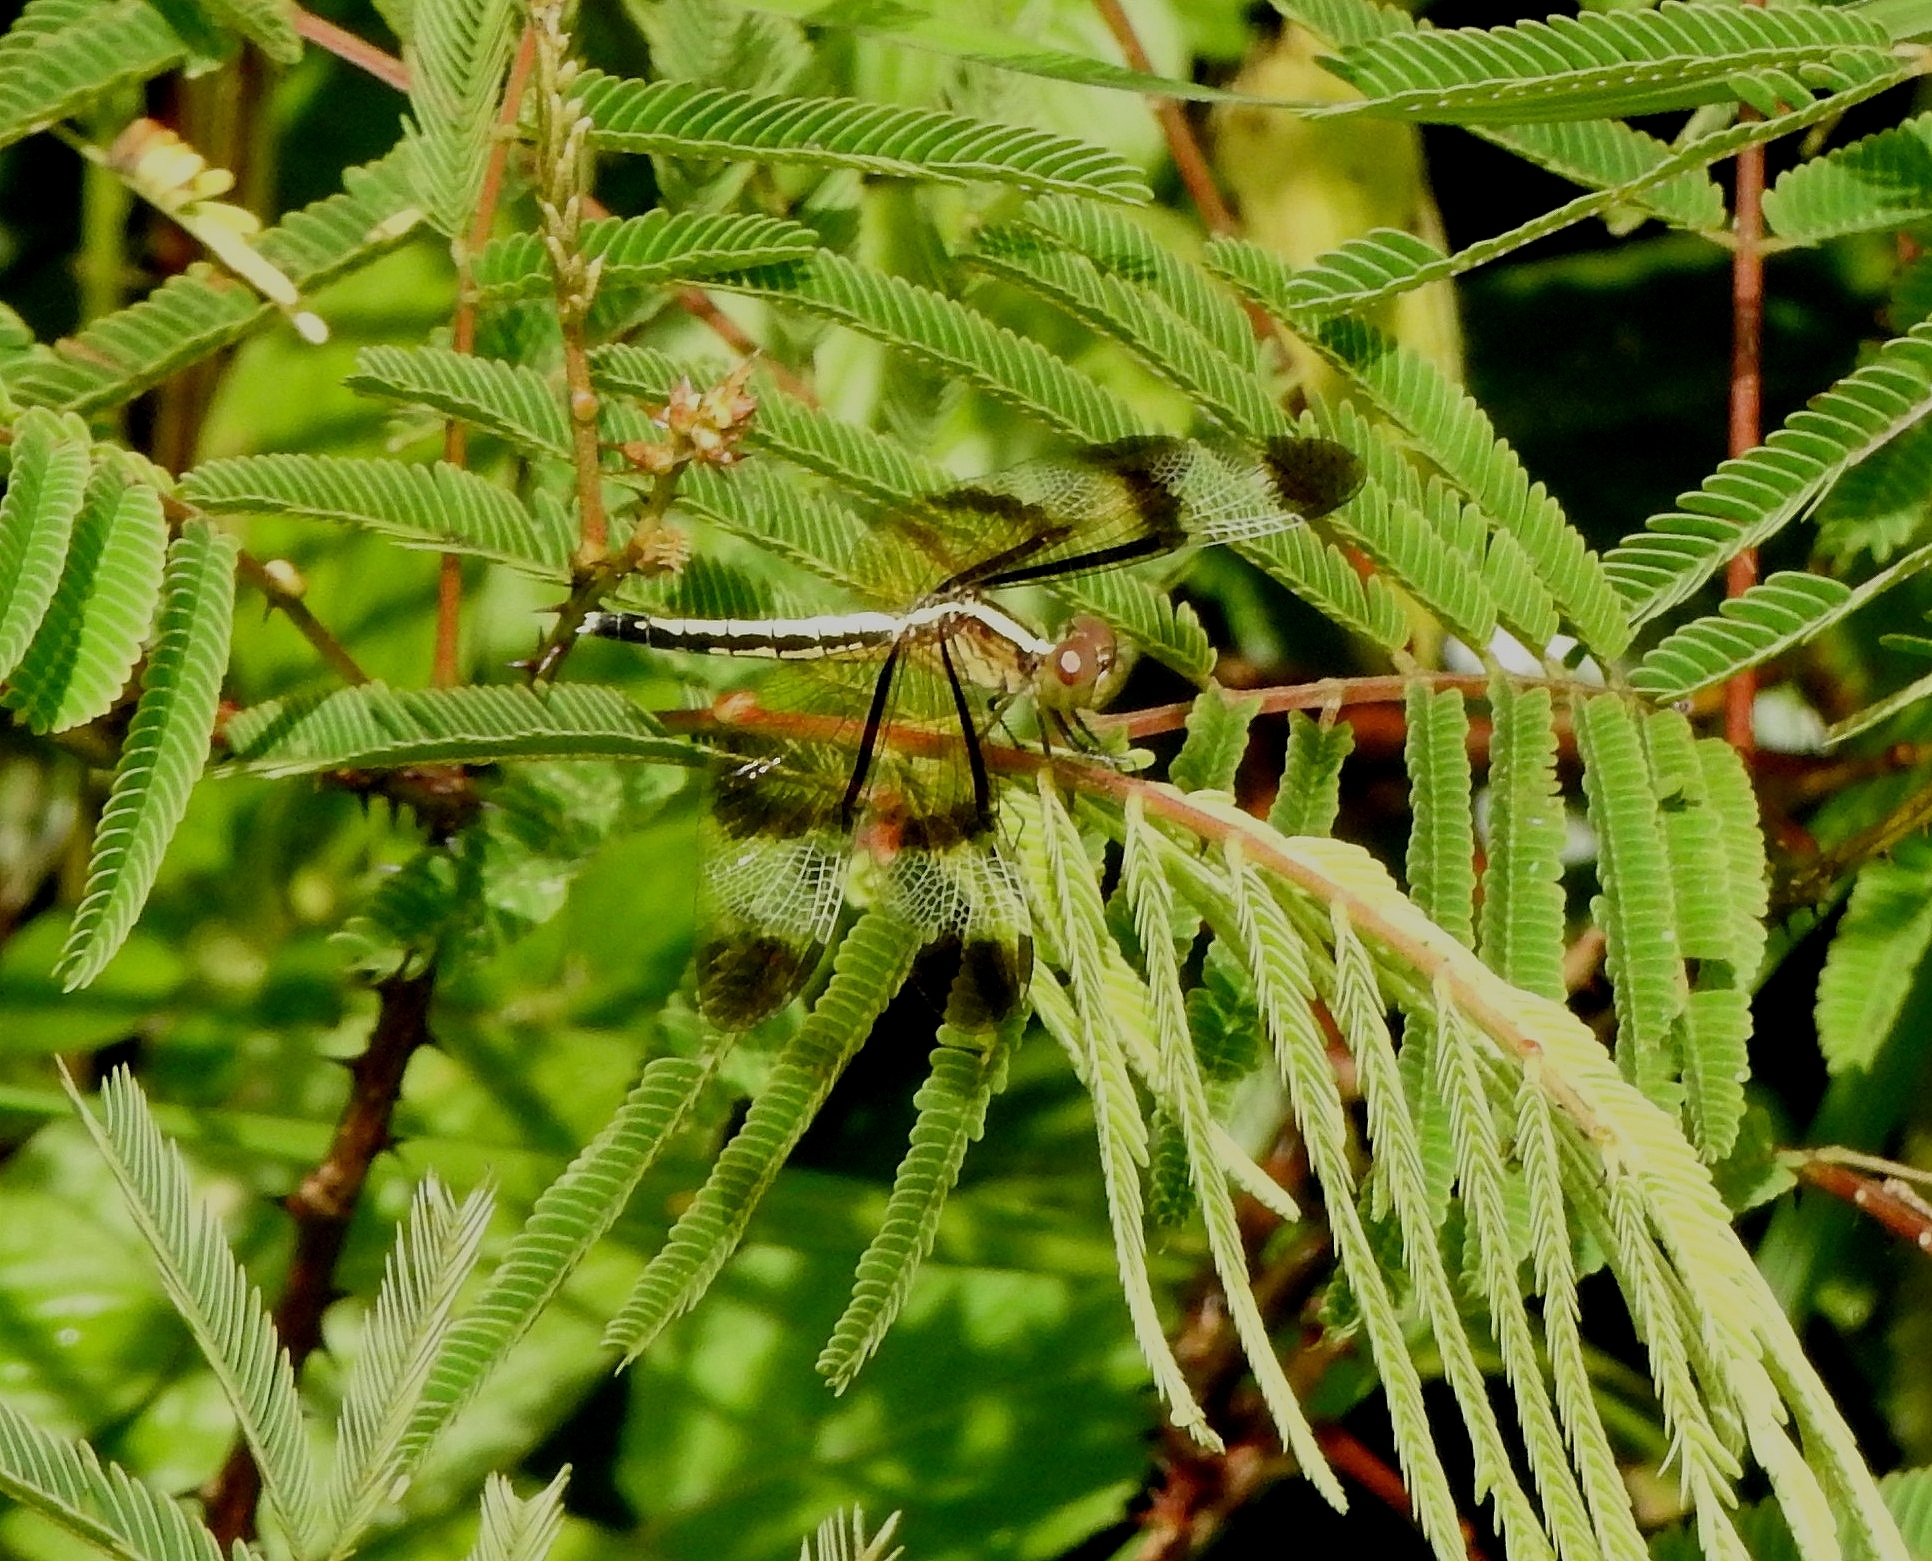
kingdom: Animalia
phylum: Arthropoda
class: Insecta
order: Odonata
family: Libellulidae
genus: Neurothemis
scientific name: Neurothemis tullia
